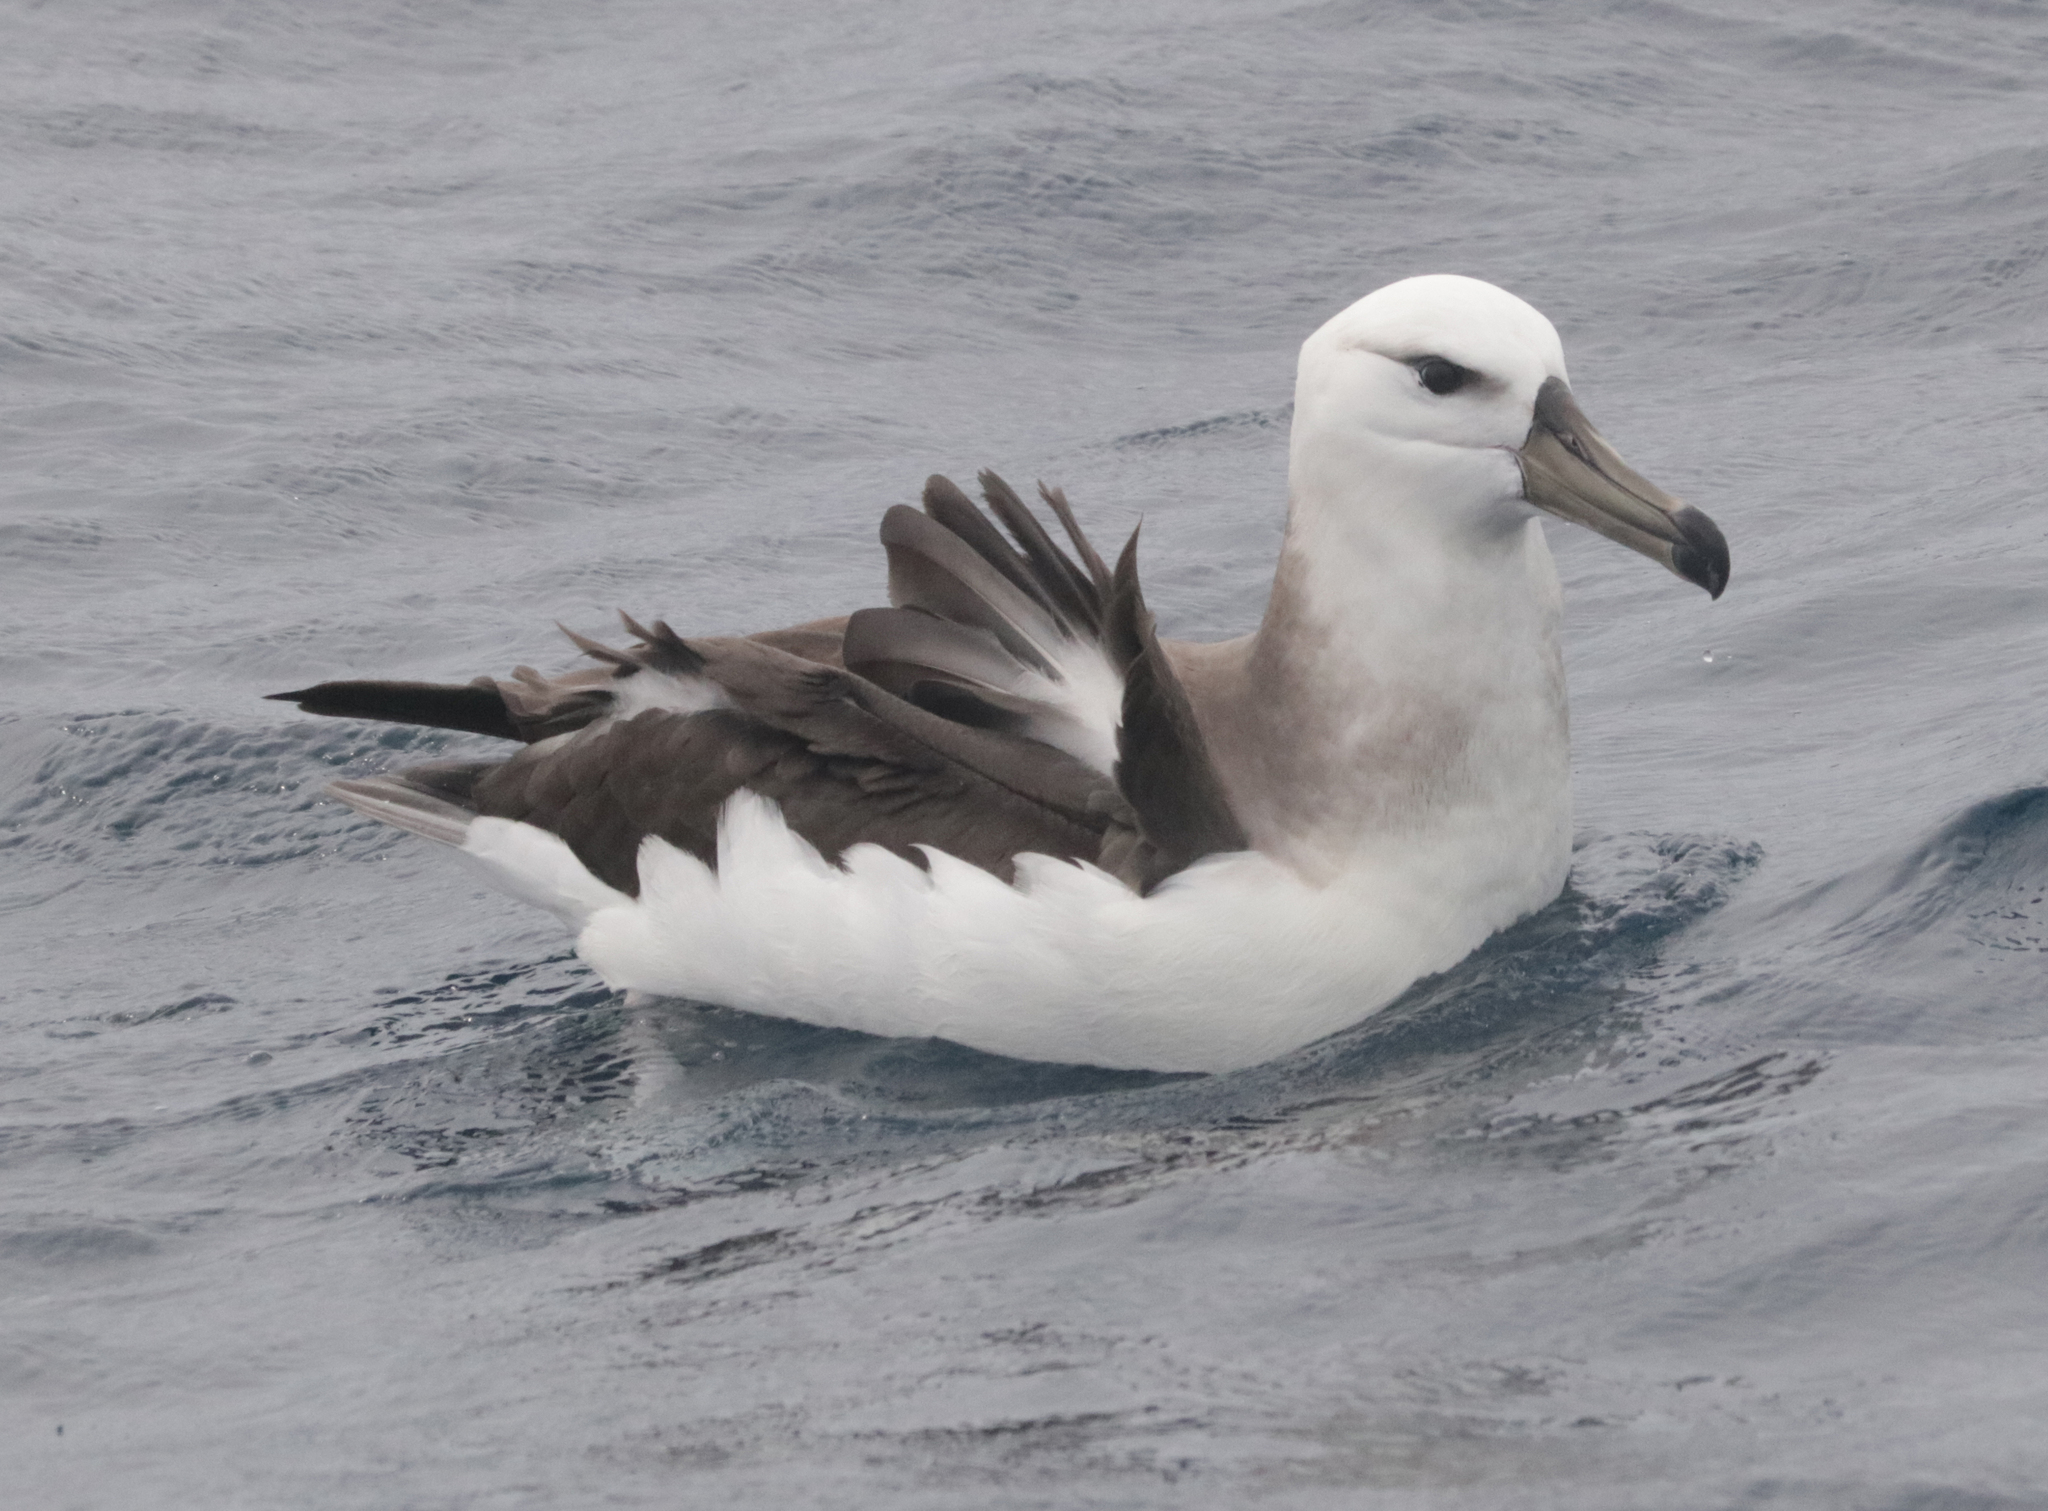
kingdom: Animalia
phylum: Chordata
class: Aves
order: Procellariiformes
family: Diomedeidae
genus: Thalassarche
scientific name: Thalassarche melanophris
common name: Black-browed albatross
